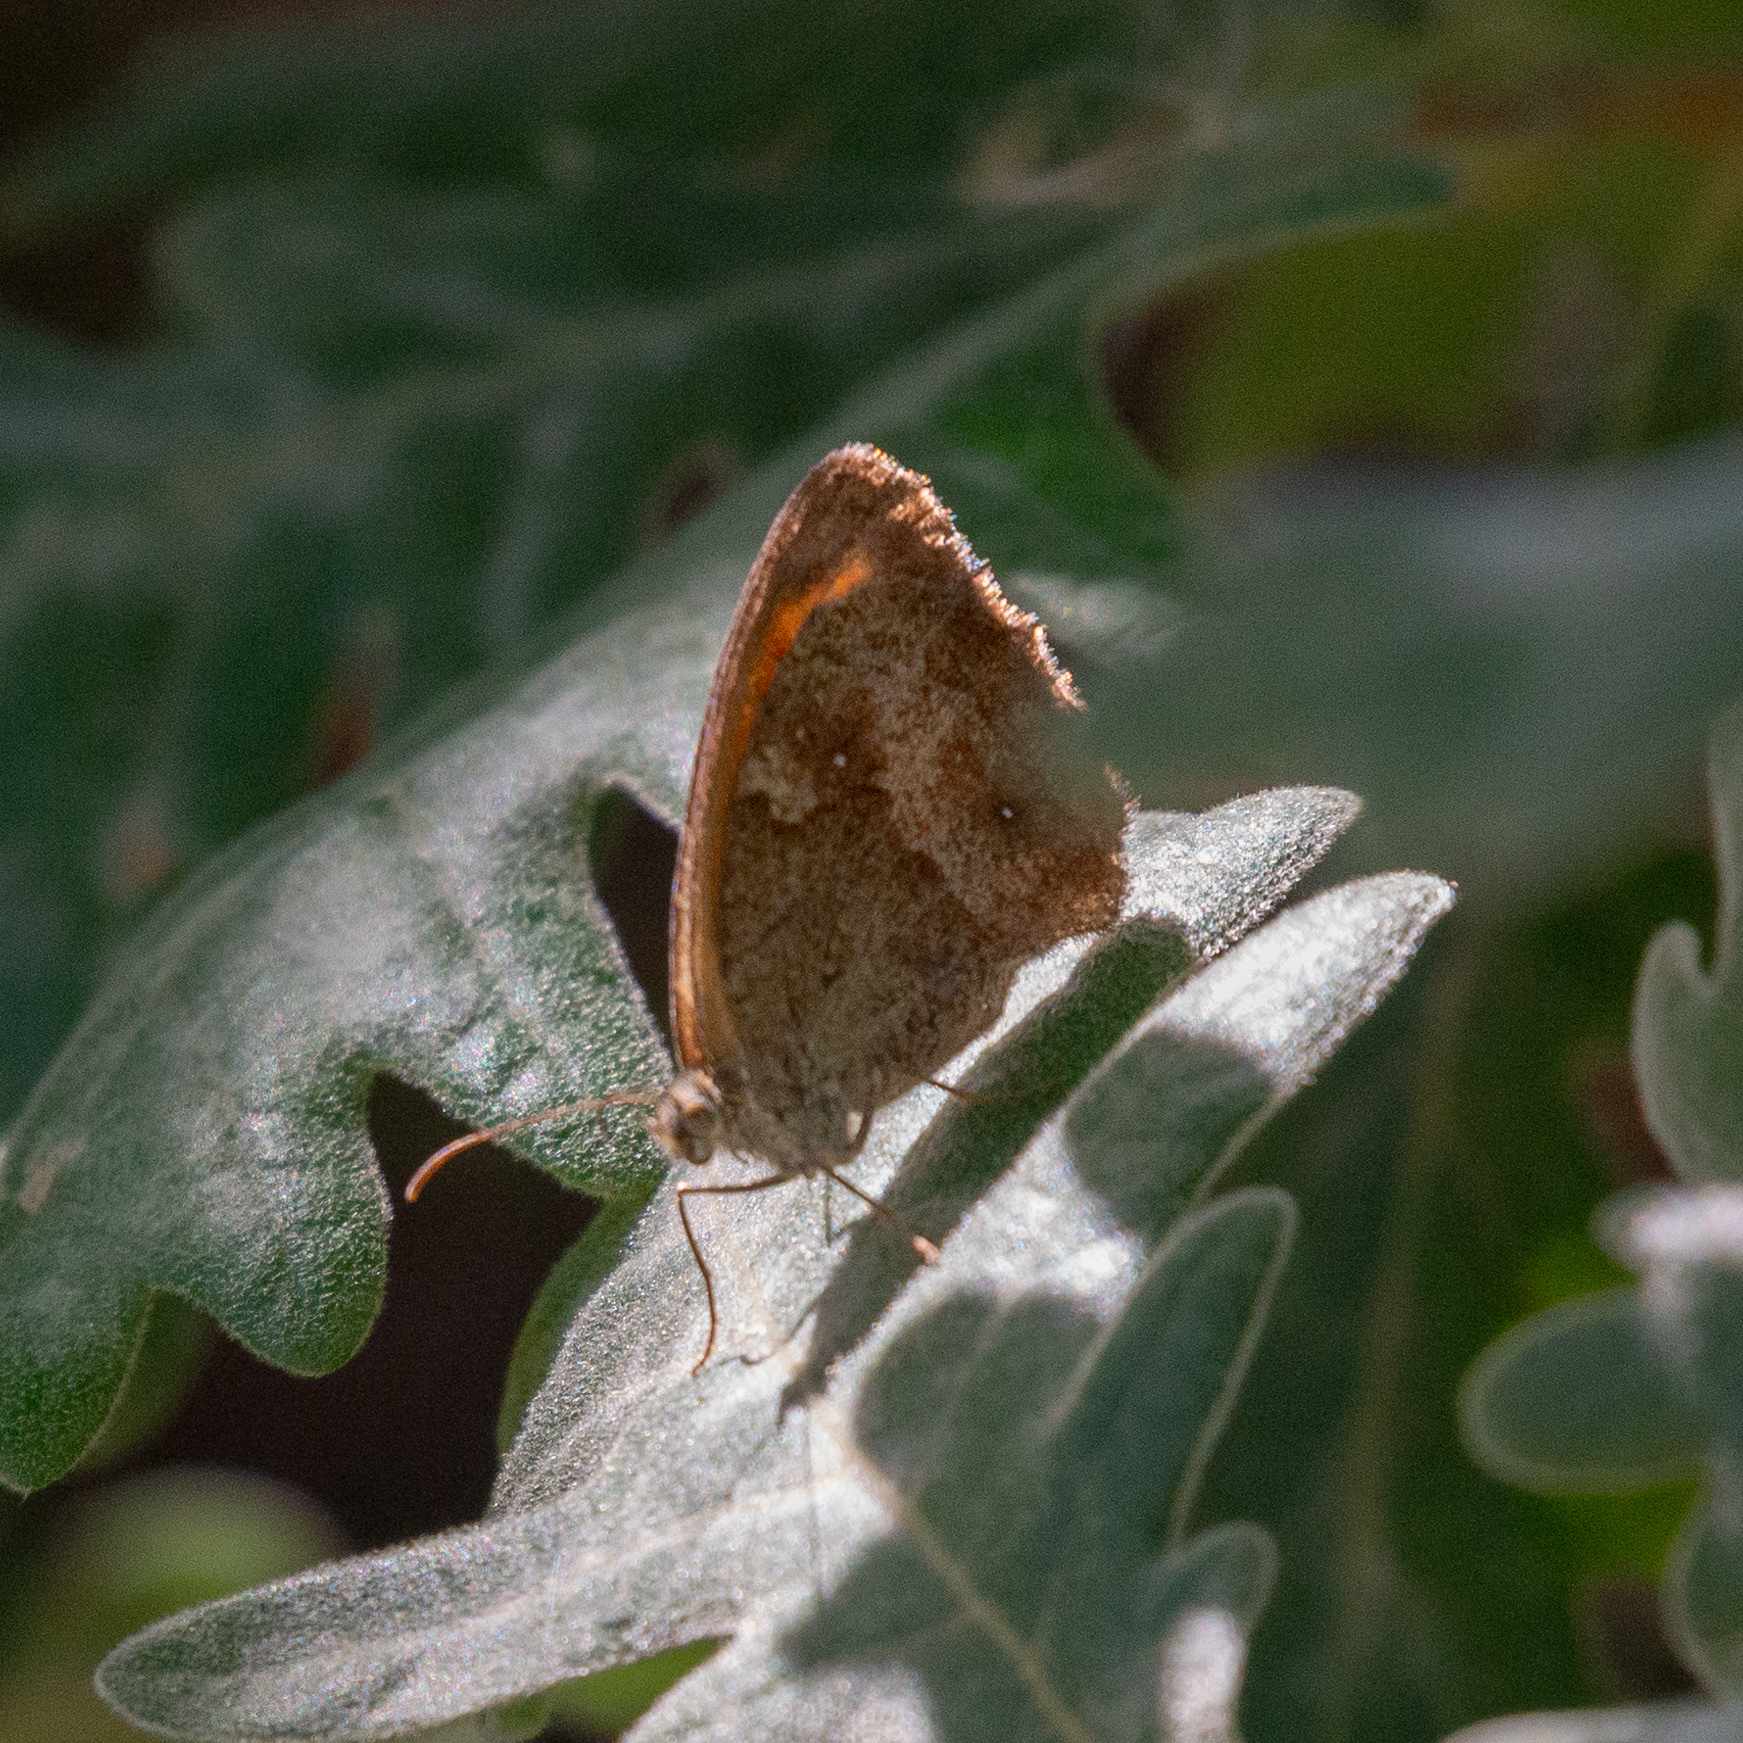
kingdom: Animalia
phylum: Arthropoda
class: Insecta
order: Lepidoptera
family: Nymphalidae
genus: Pyronia
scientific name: Pyronia tithonus
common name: Gatekeeper
